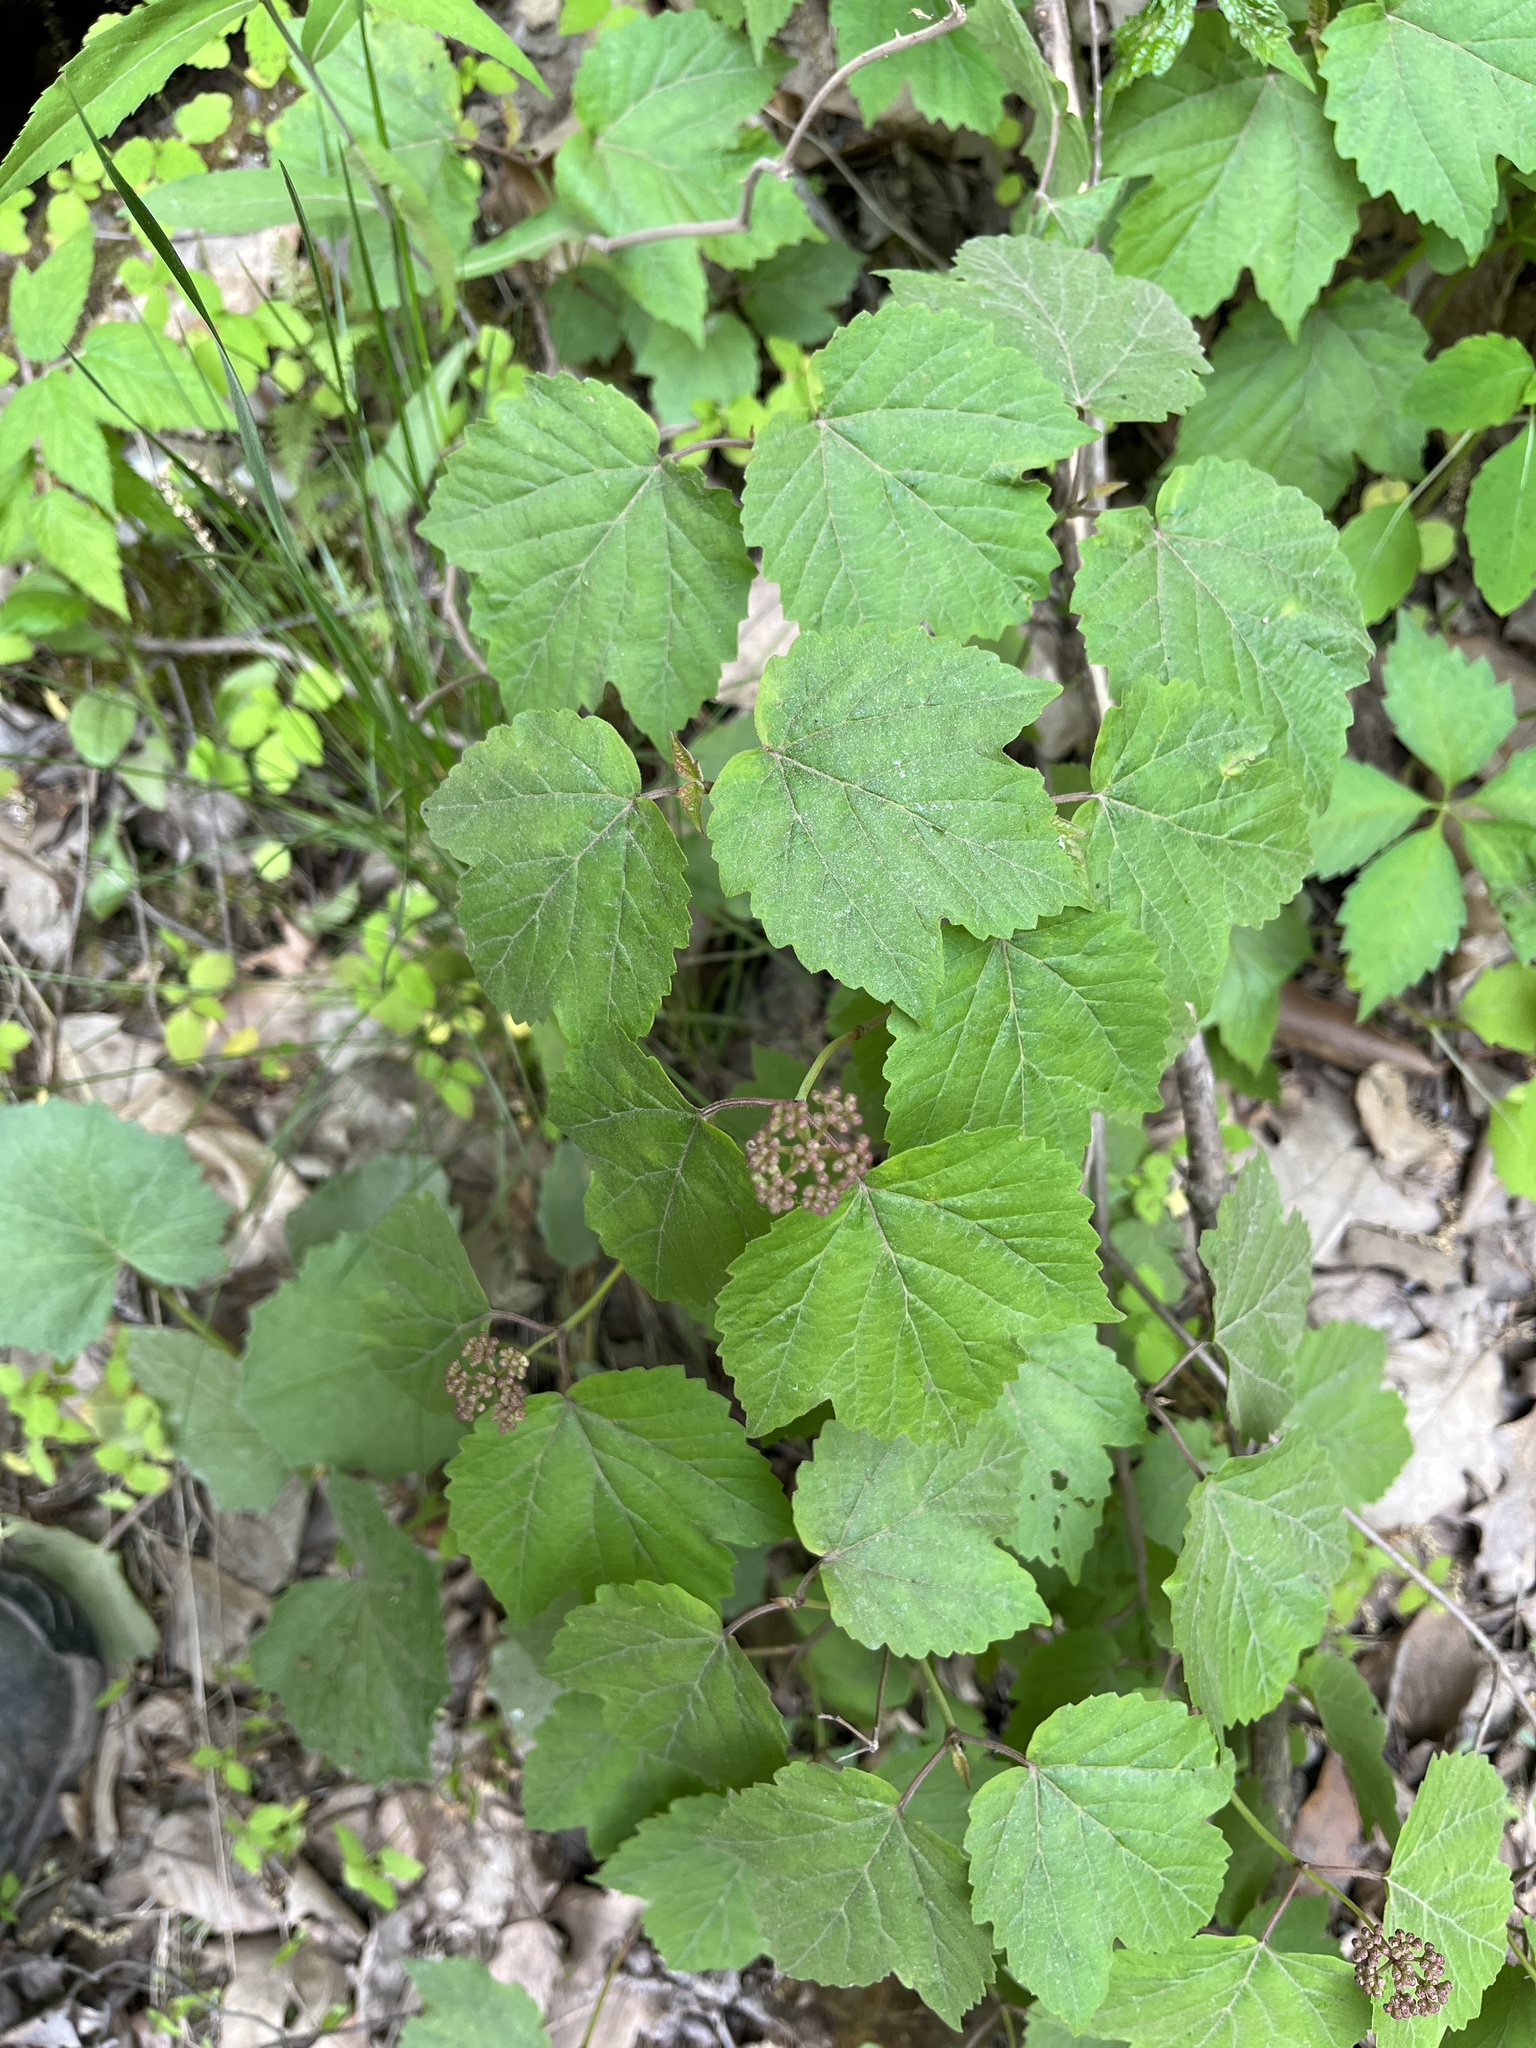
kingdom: Plantae
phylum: Tracheophyta
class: Magnoliopsida
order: Dipsacales
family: Viburnaceae
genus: Viburnum
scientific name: Viburnum acerifolium
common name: Dockmackie
